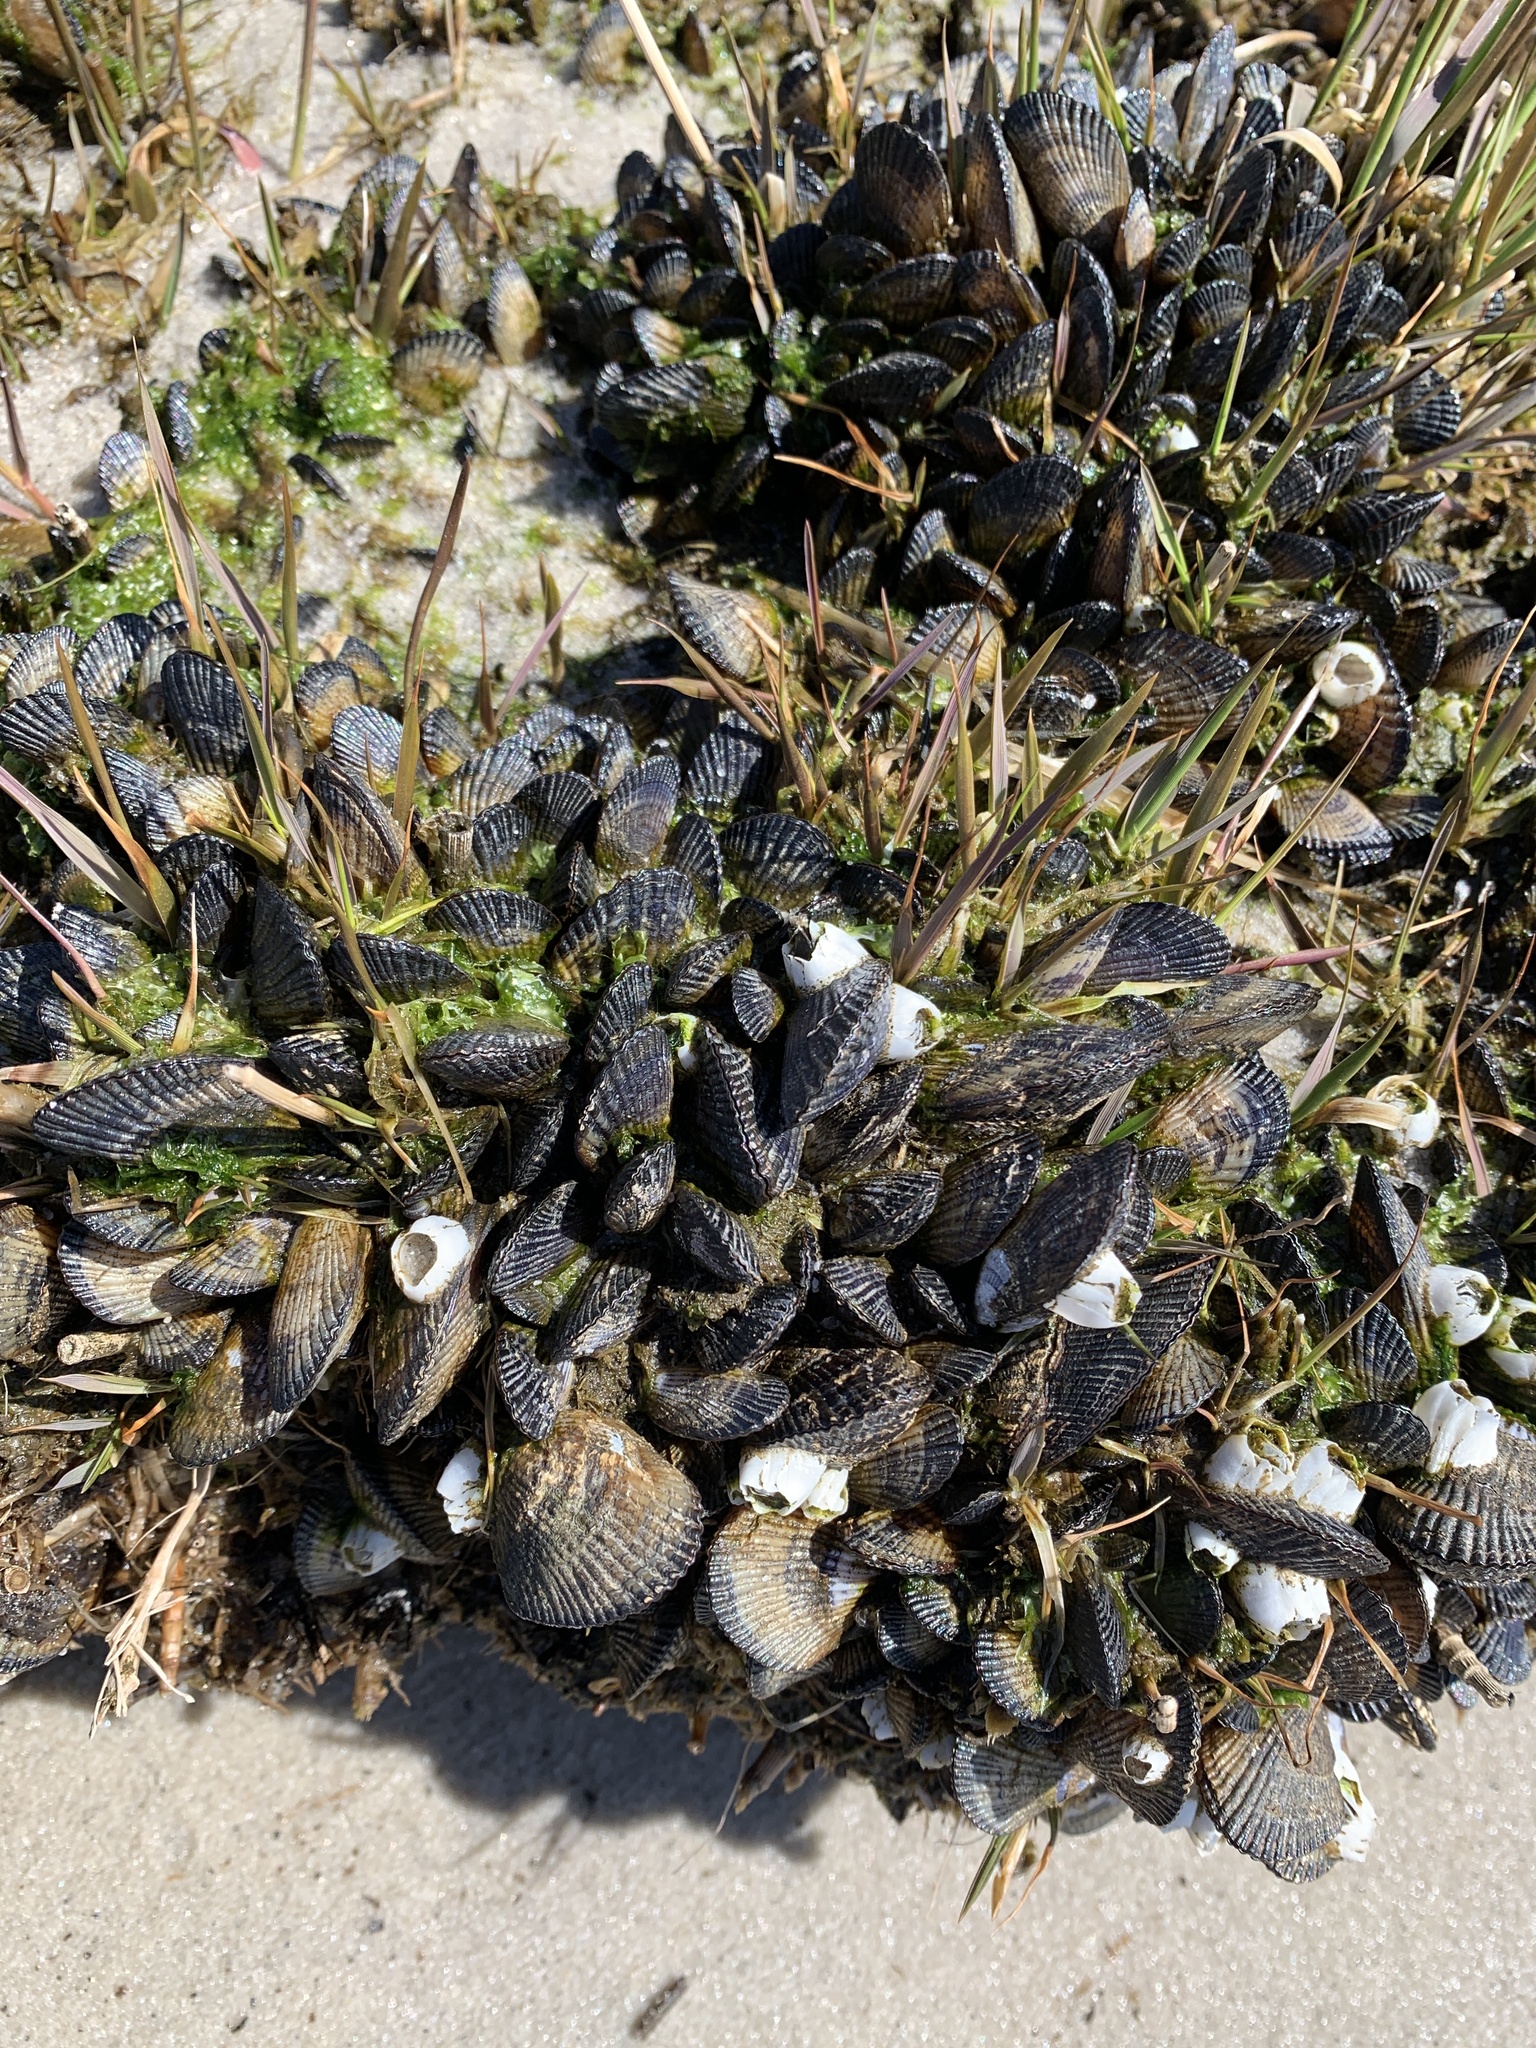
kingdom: Animalia
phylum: Mollusca
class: Bivalvia
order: Mytilida
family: Mytilidae
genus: Geukensia
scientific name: Geukensia demissa
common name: Ribbed mussel
